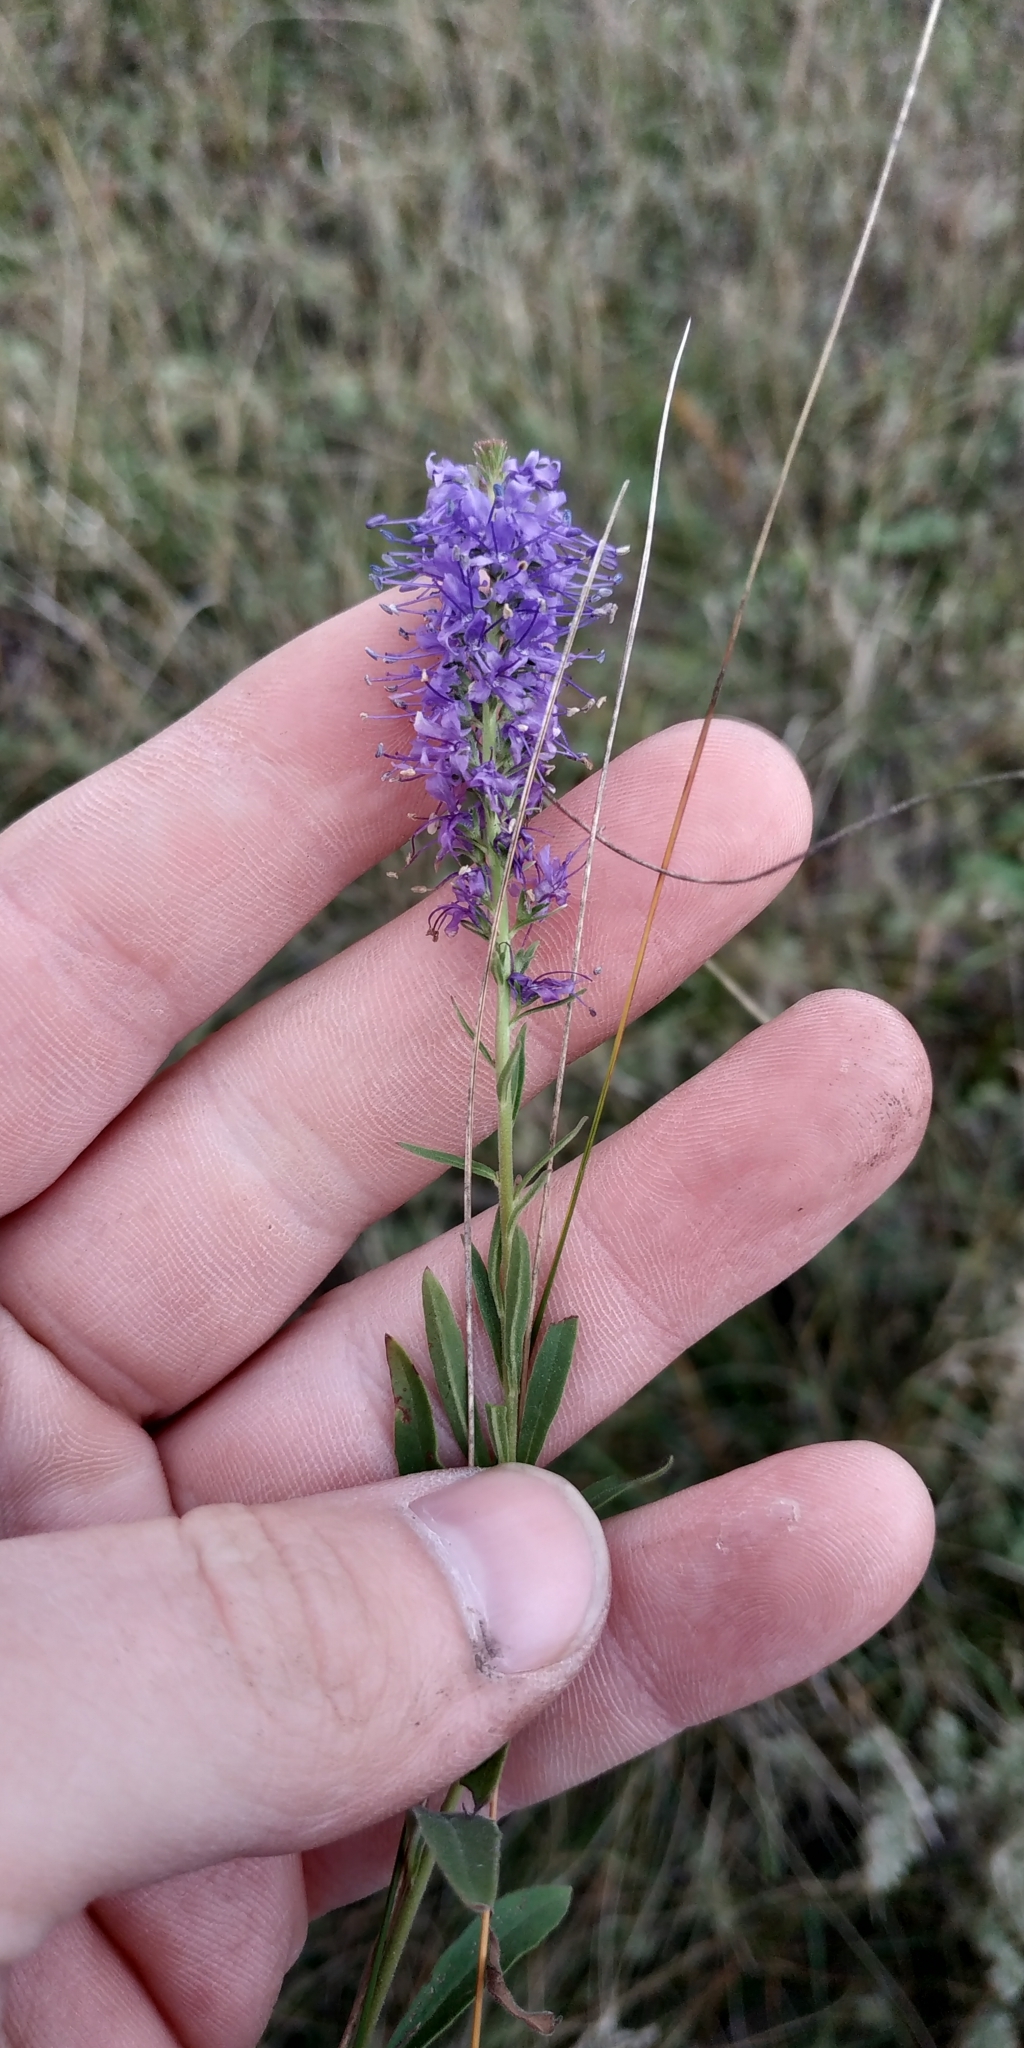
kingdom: Plantae
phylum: Tracheophyta
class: Magnoliopsida
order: Lamiales
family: Plantaginaceae
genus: Veronica
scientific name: Veronica spicata
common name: Spiked speedwell
